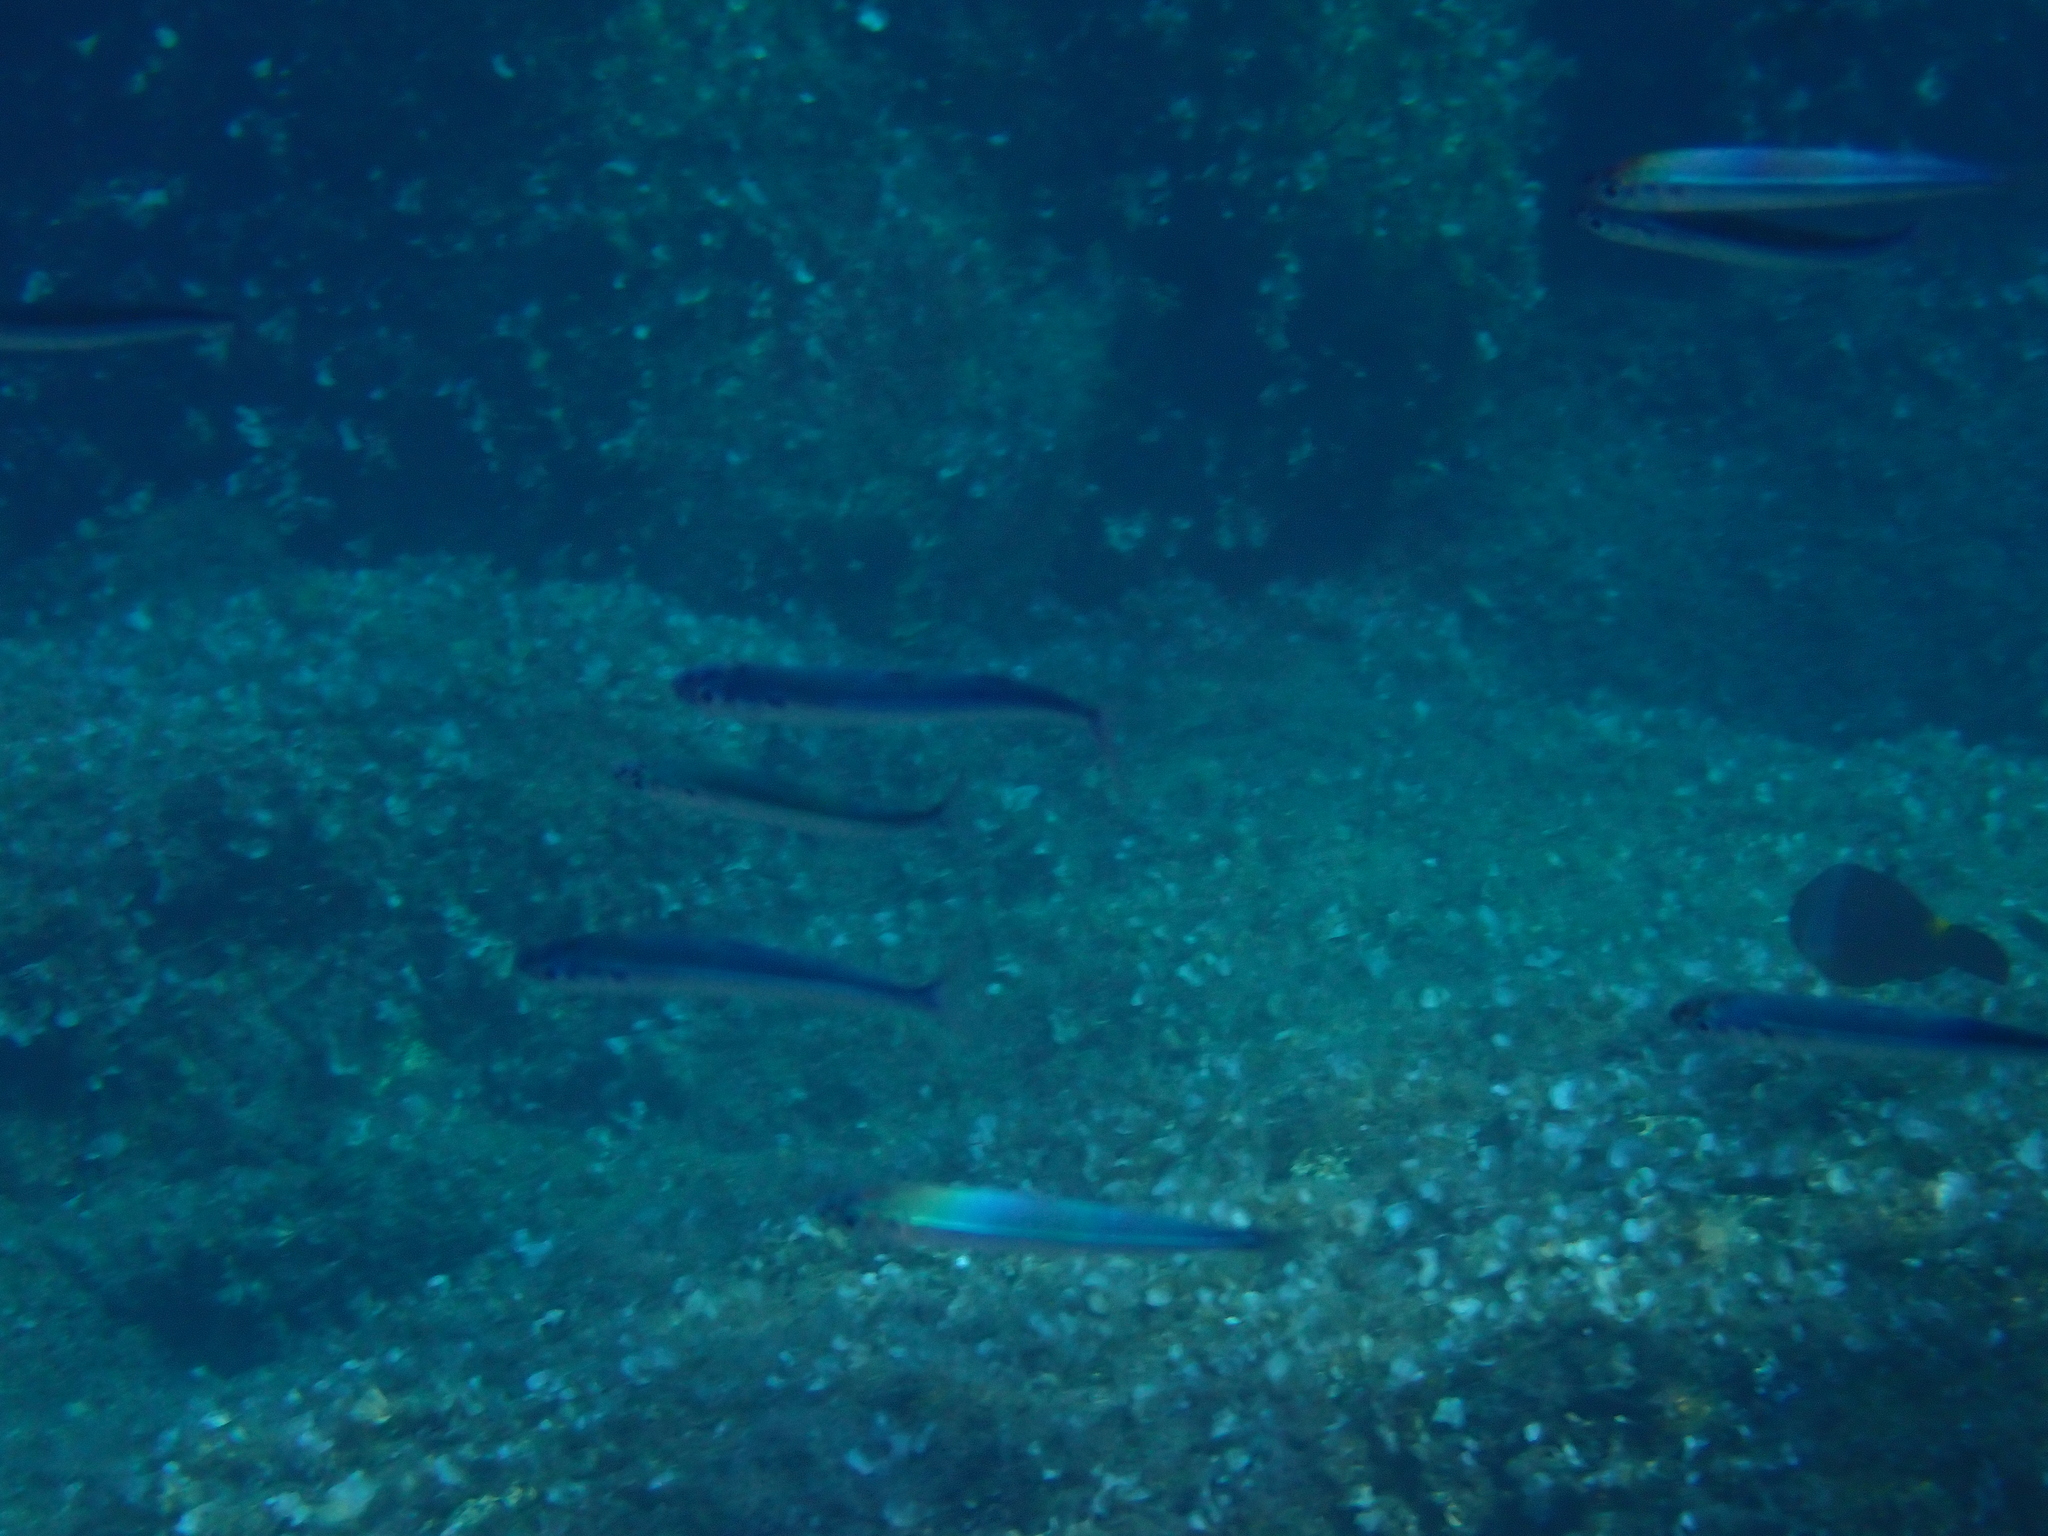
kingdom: Animalia
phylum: Chordata
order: Atheriniformes
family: Atherinidae
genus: Atherina
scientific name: Atherina hepsetus
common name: Mediterranean sand smelt
